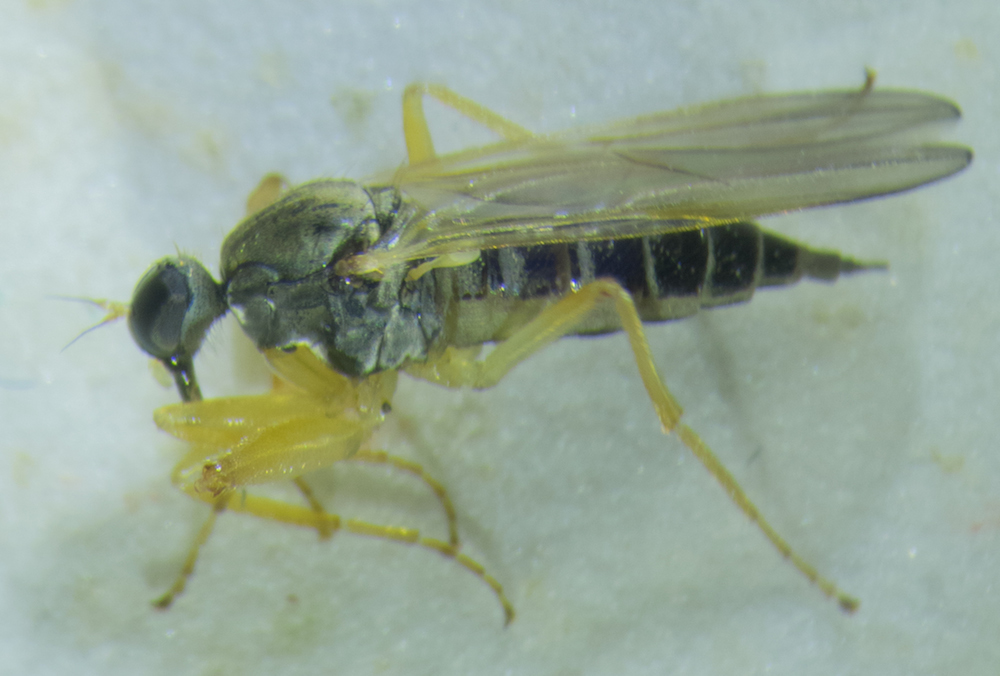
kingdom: Animalia
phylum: Arthropoda
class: Insecta
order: Diptera
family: Hybotidae
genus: Platypalpus
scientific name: Platypalpus
